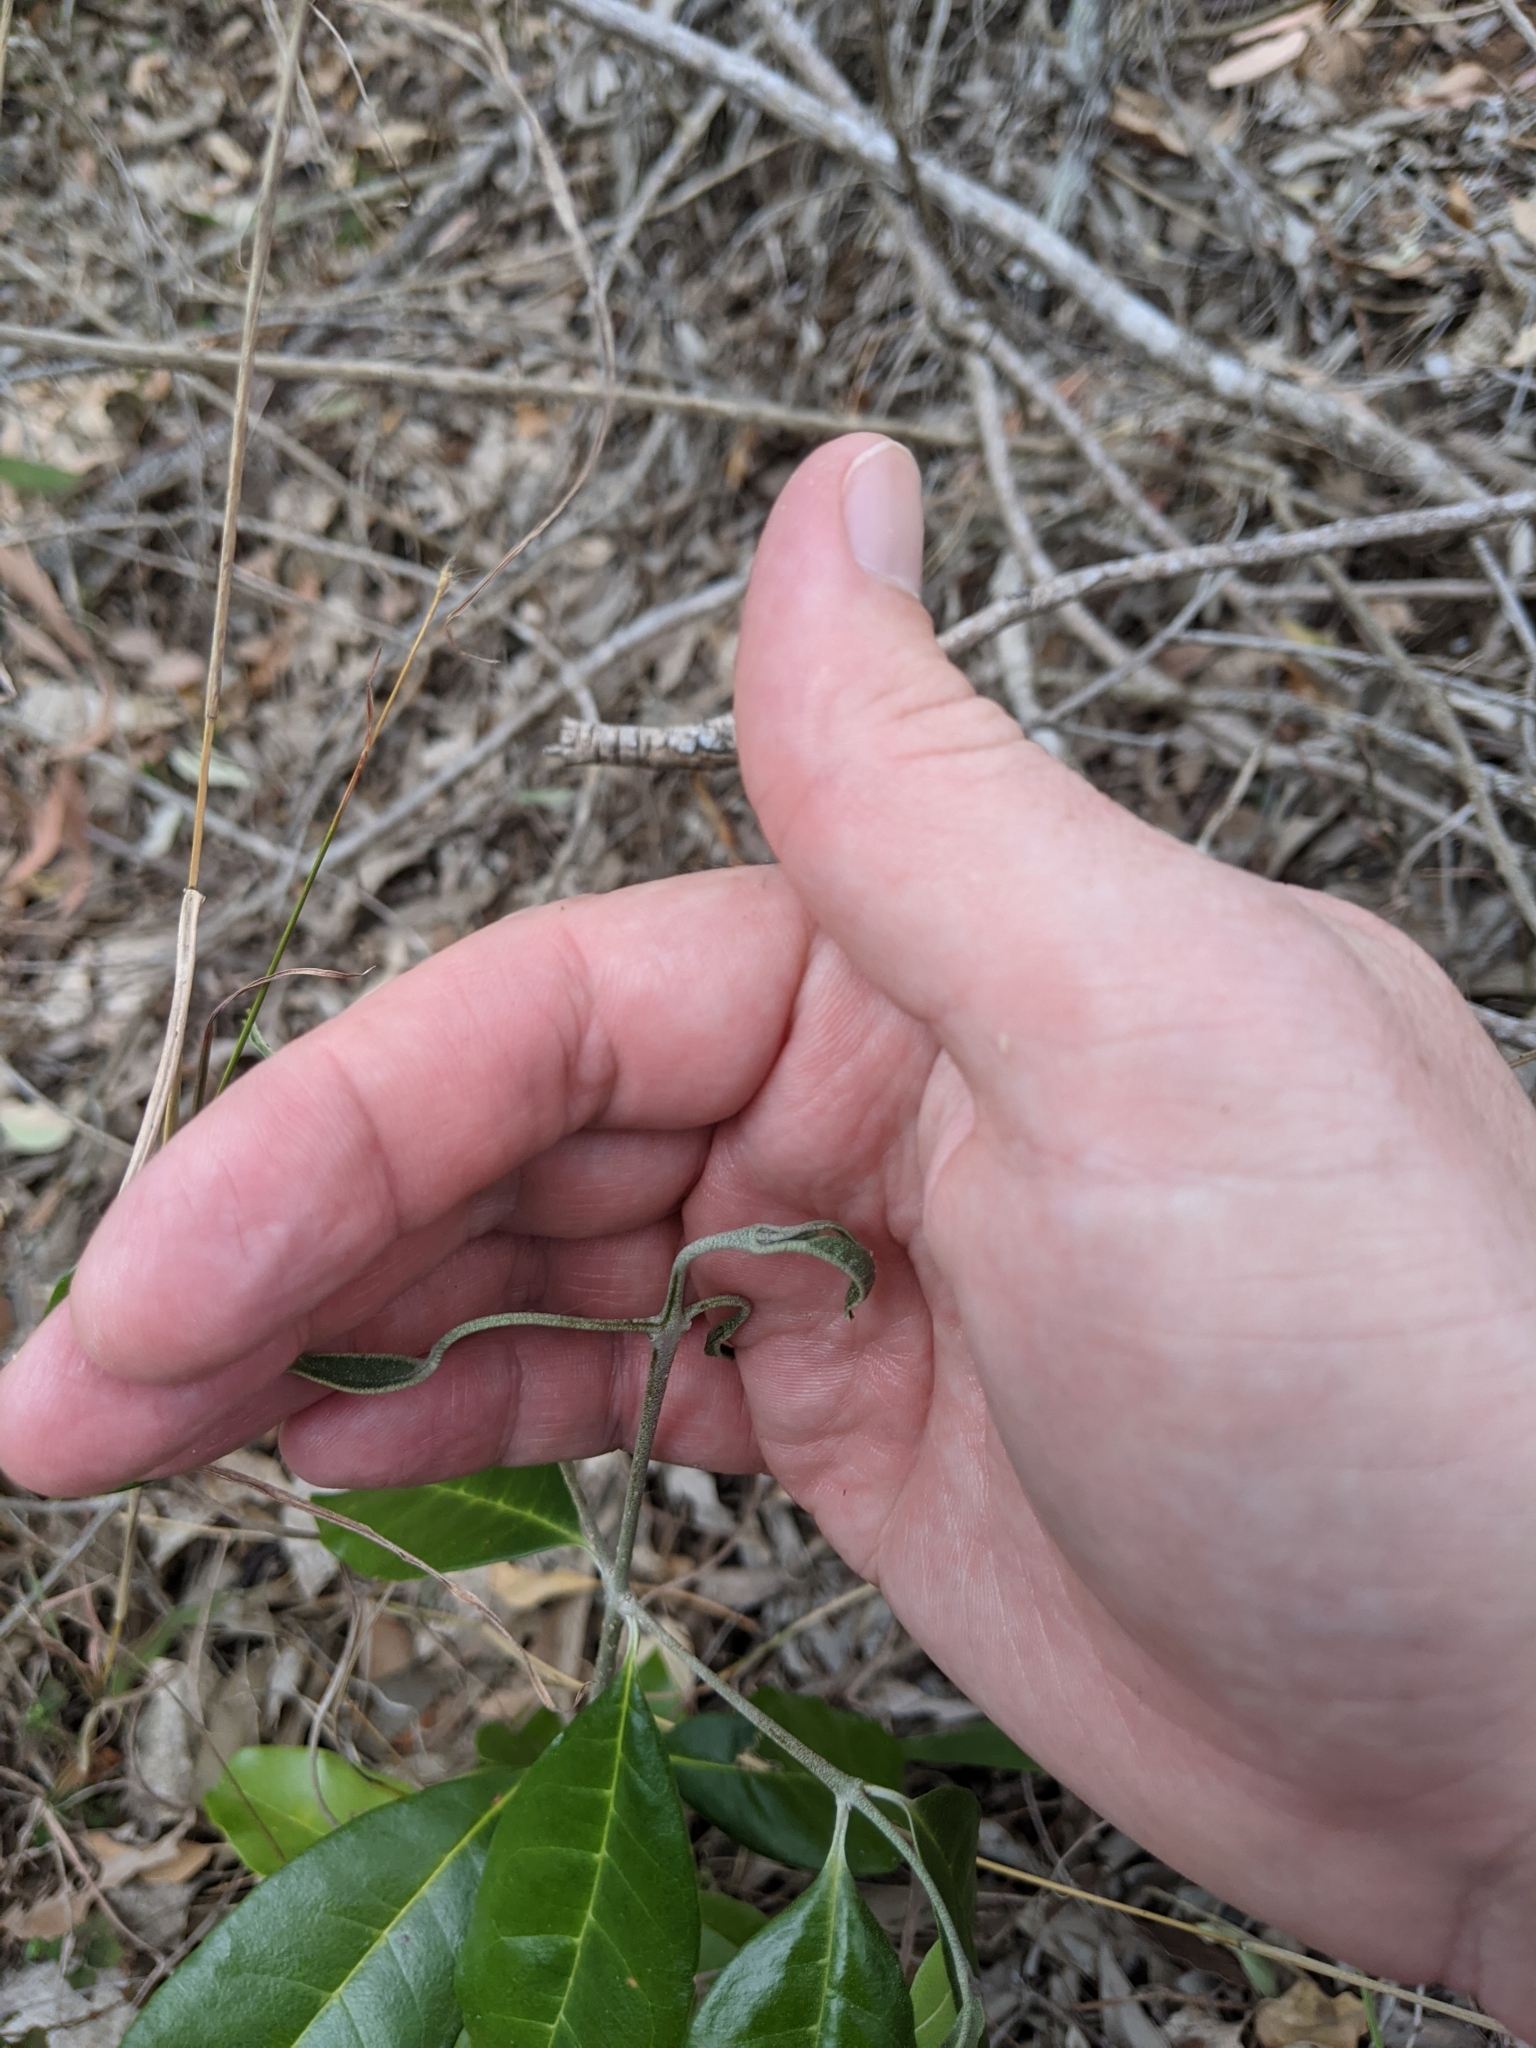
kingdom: Plantae
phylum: Tracheophyta
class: Magnoliopsida
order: Lamiales
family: Oleaceae
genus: Olea
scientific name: Olea paniculata
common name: Australian olive
